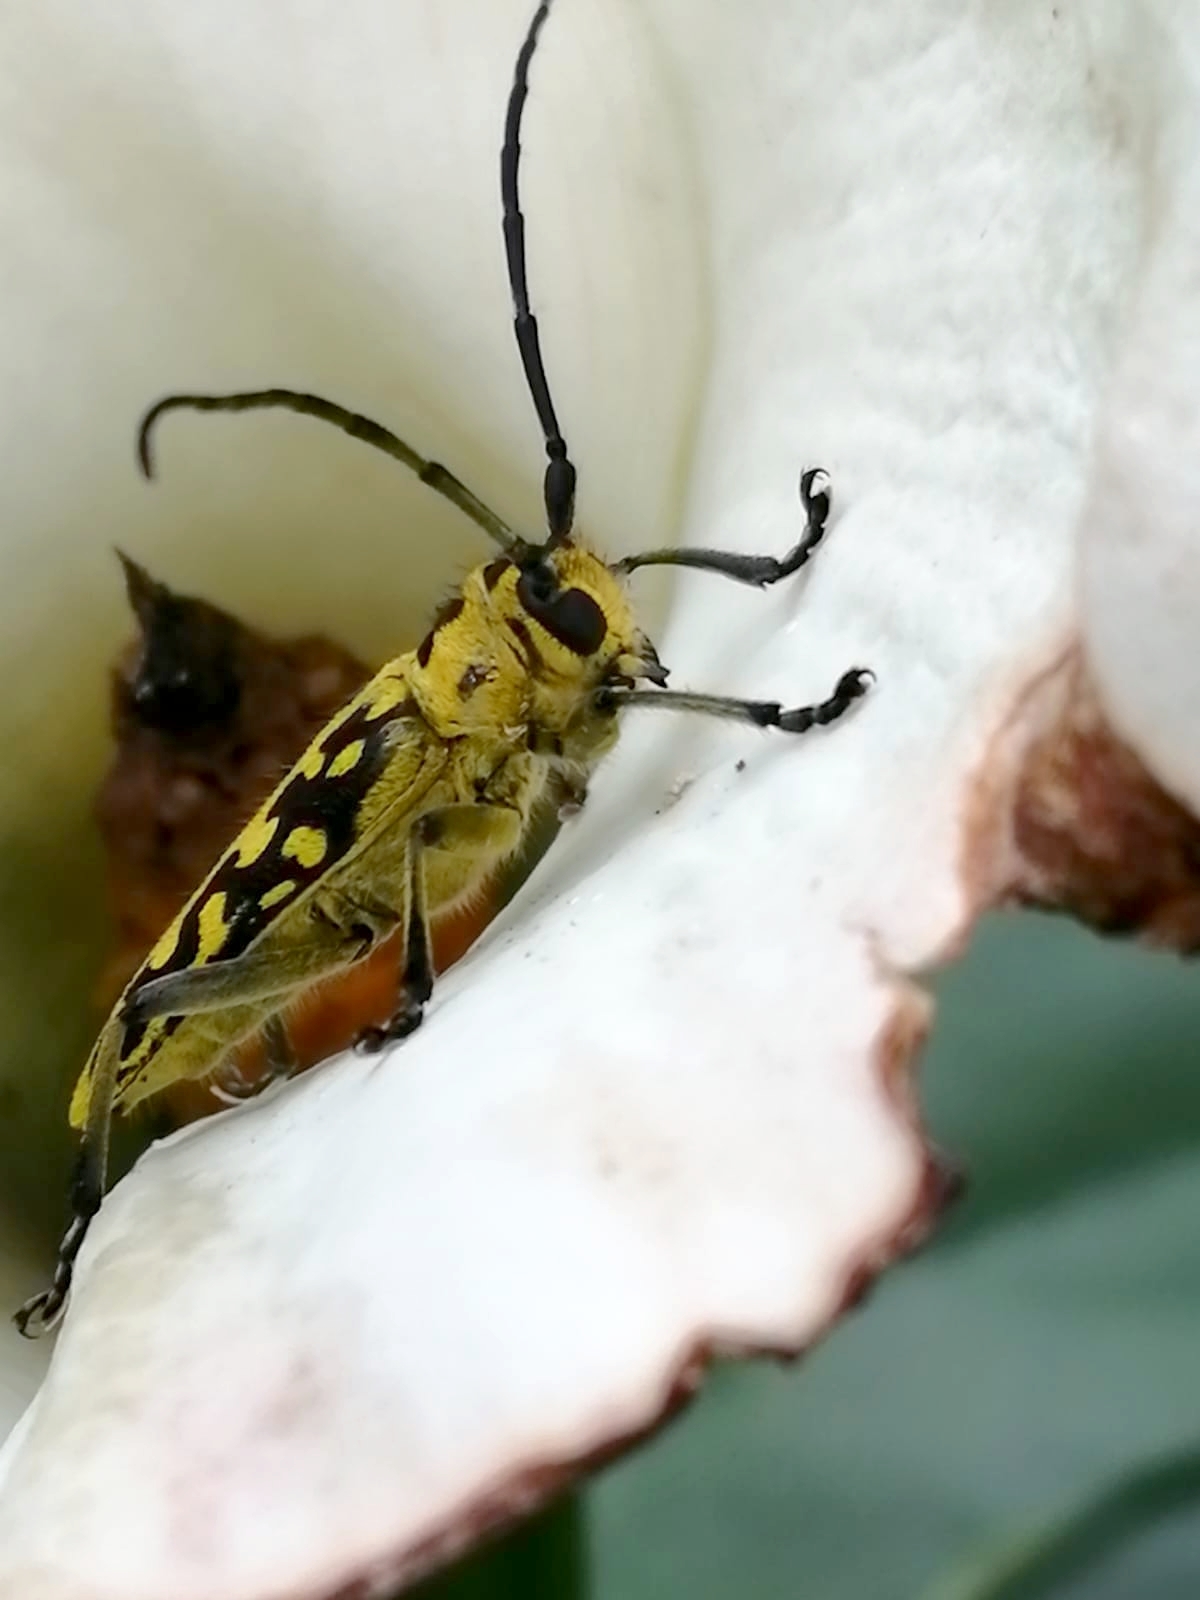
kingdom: Animalia
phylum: Arthropoda
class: Insecta
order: Coleoptera
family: Cerambycidae
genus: Saperda
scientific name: Saperda scalaris
